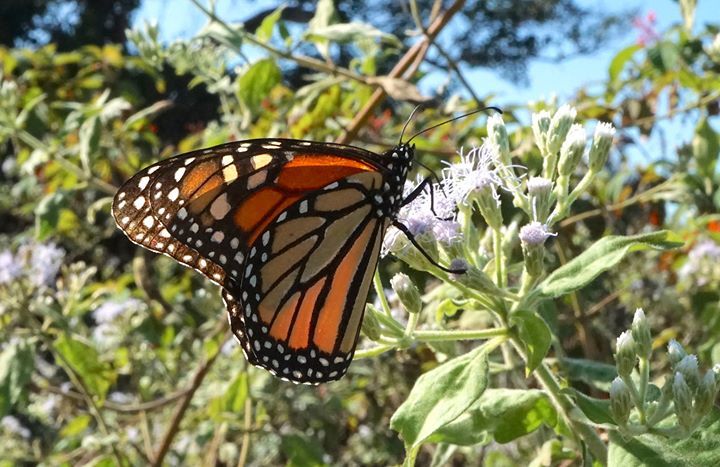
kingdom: Animalia
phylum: Arthropoda
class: Insecta
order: Lepidoptera
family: Nymphalidae
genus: Danaus
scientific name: Danaus plexippus
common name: Monarch
